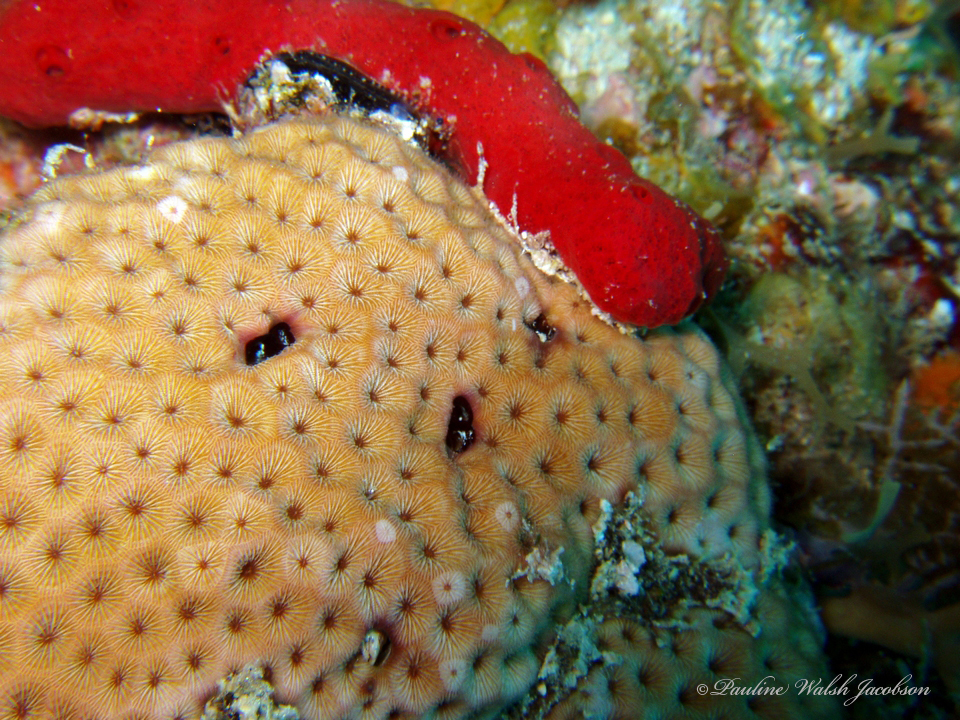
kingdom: Animalia
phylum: Cnidaria
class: Anthozoa
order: Scleractinia
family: Rhizangiidae
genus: Siderastrea
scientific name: Siderastrea siderea
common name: Massive starlet coral
